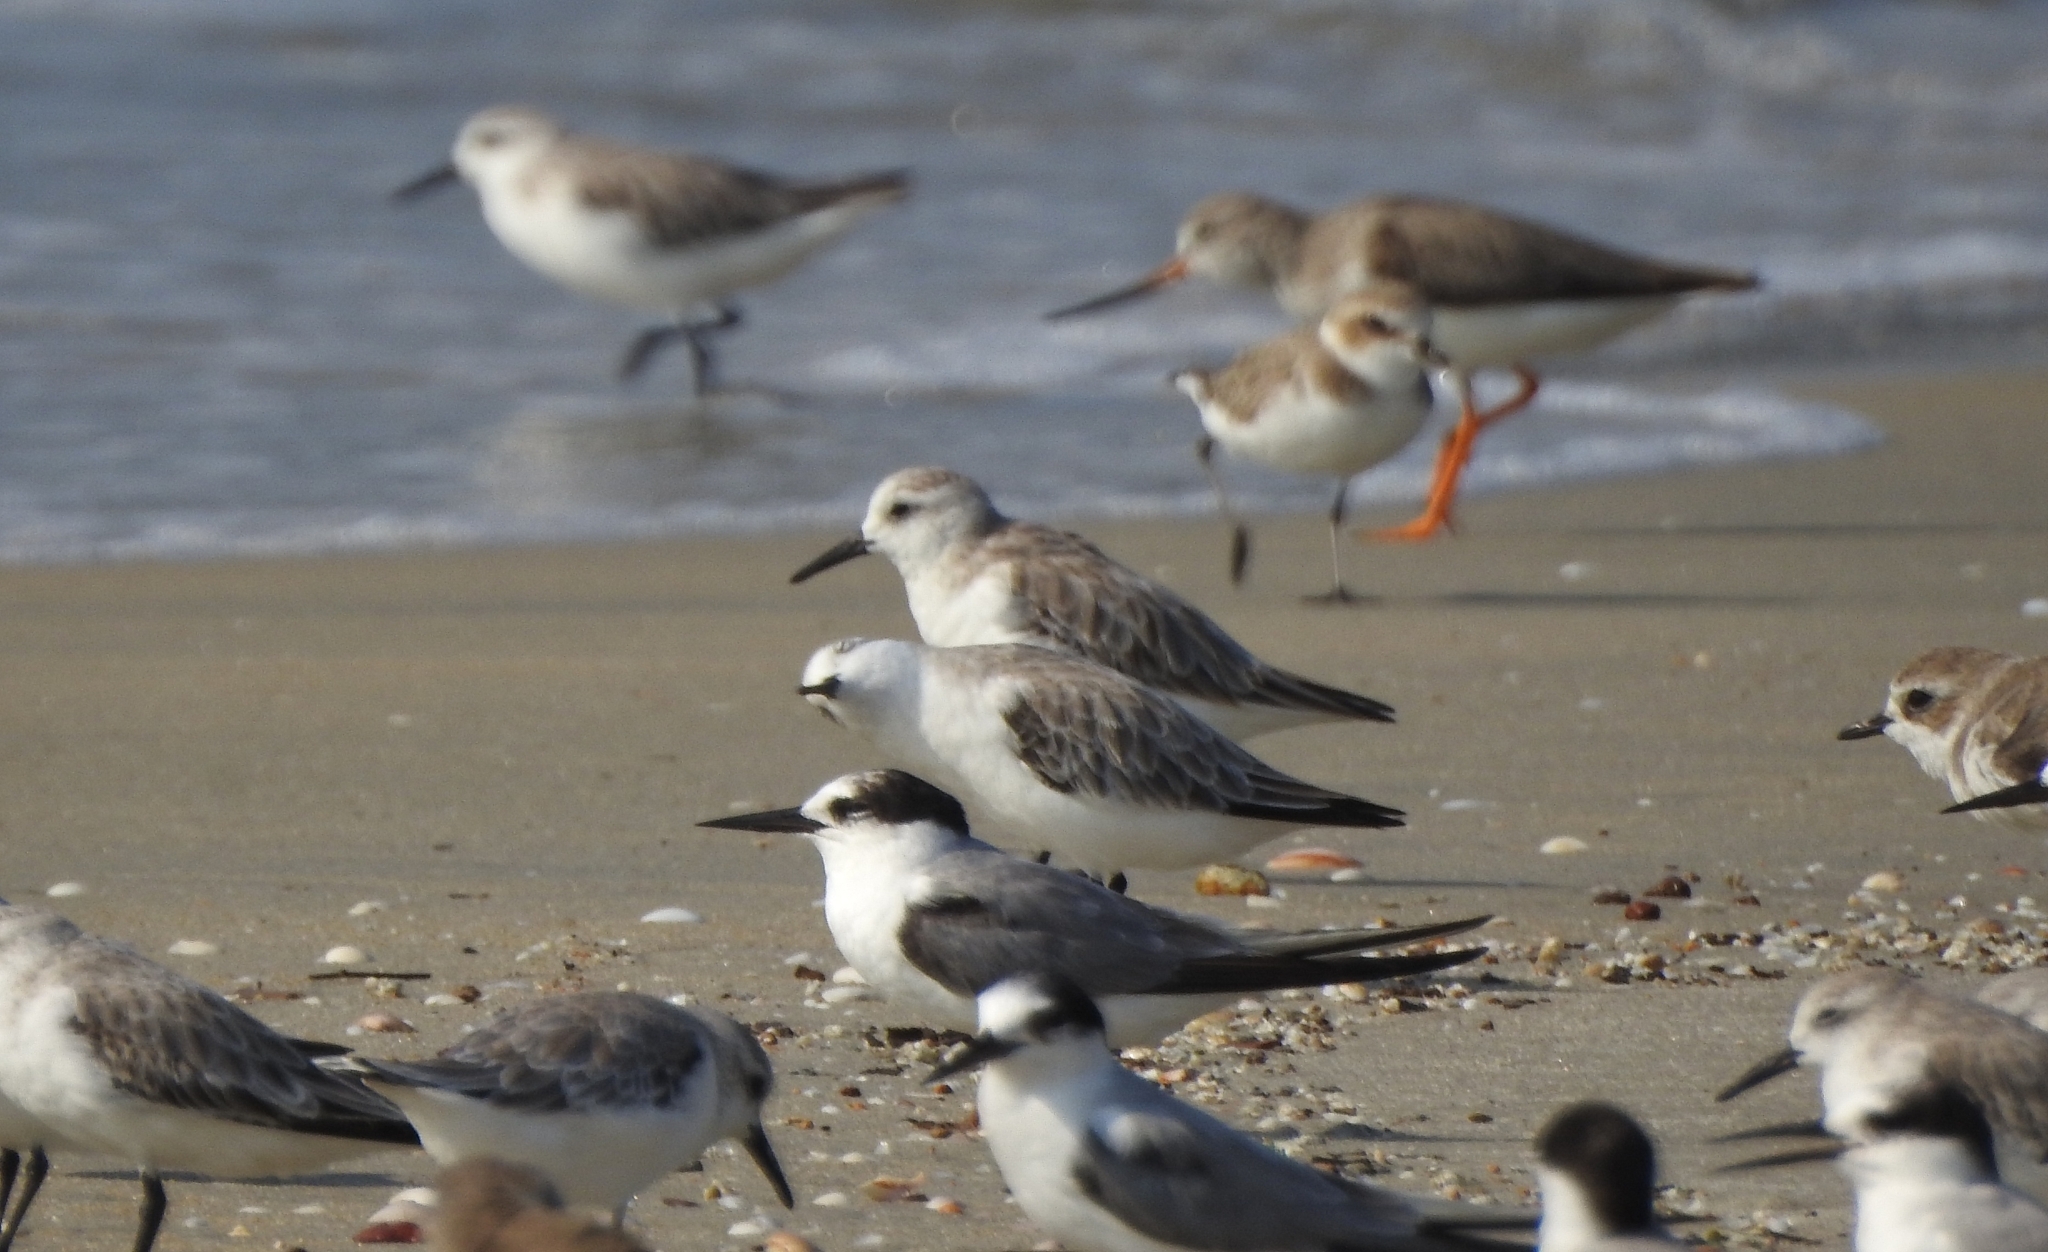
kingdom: Animalia
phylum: Chordata
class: Aves
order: Charadriiformes
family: Scolopacidae
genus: Calidris
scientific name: Calidris alba
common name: Sanderling
